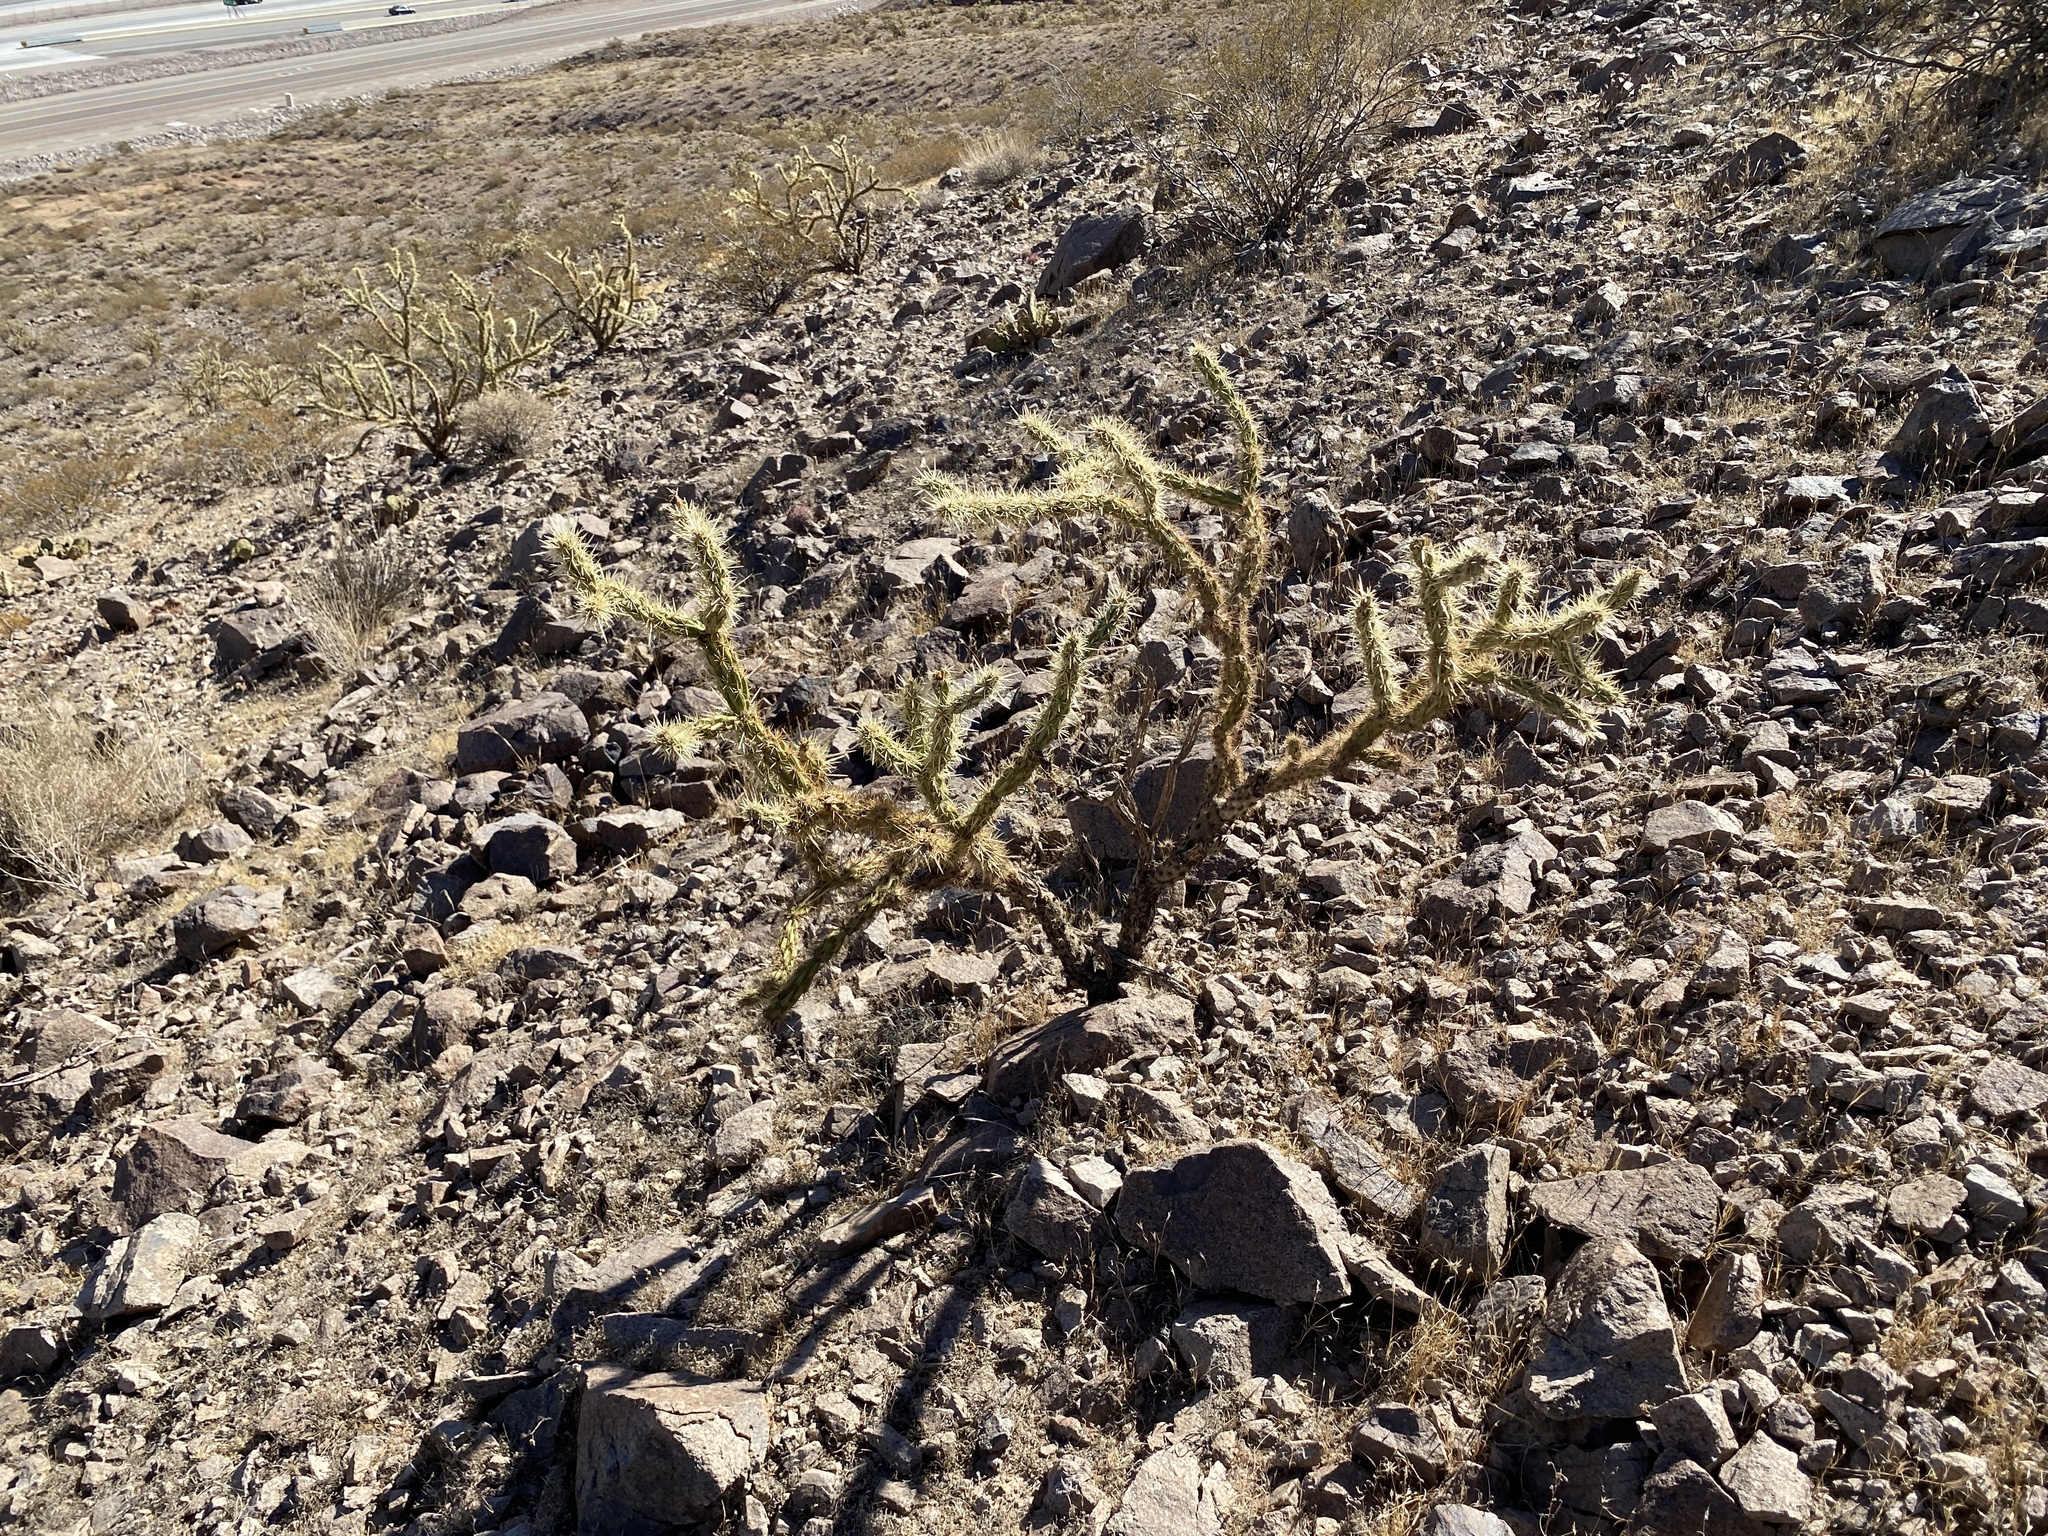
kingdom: Plantae
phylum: Tracheophyta
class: Magnoliopsida
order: Caryophyllales
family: Cactaceae
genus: Cylindropuntia
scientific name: Cylindropuntia acanthocarpa
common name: Buckhorn cholla
